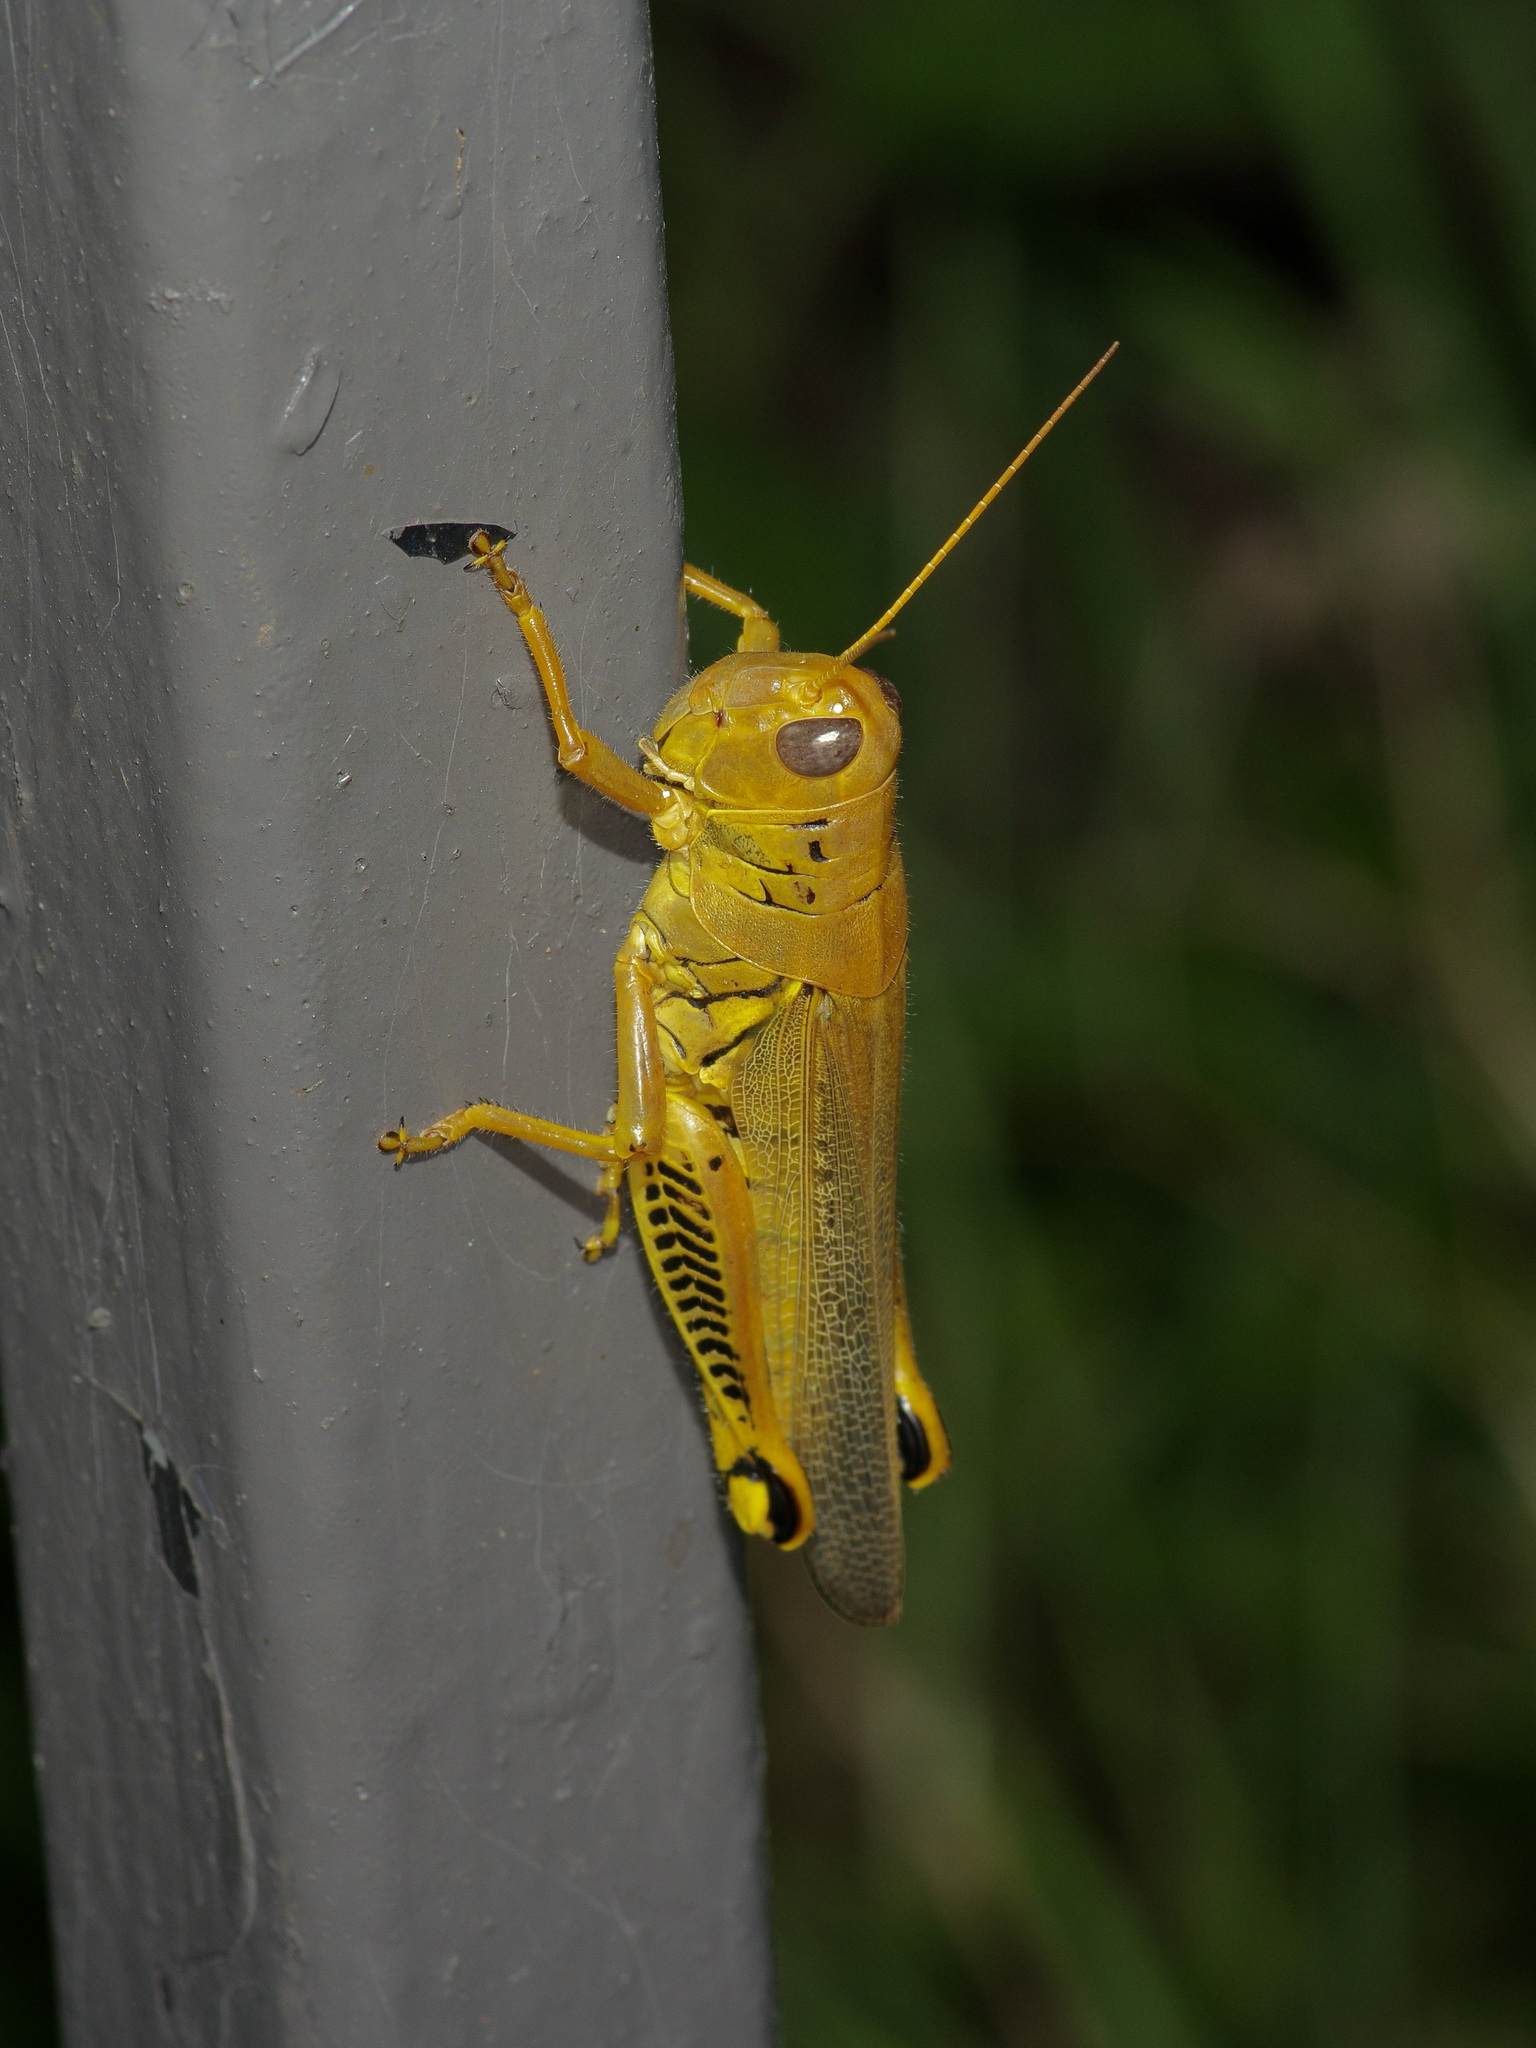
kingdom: Animalia
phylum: Arthropoda
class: Insecta
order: Orthoptera
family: Acrididae
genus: Melanoplus
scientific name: Melanoplus differentialis
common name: Differential grasshopper
